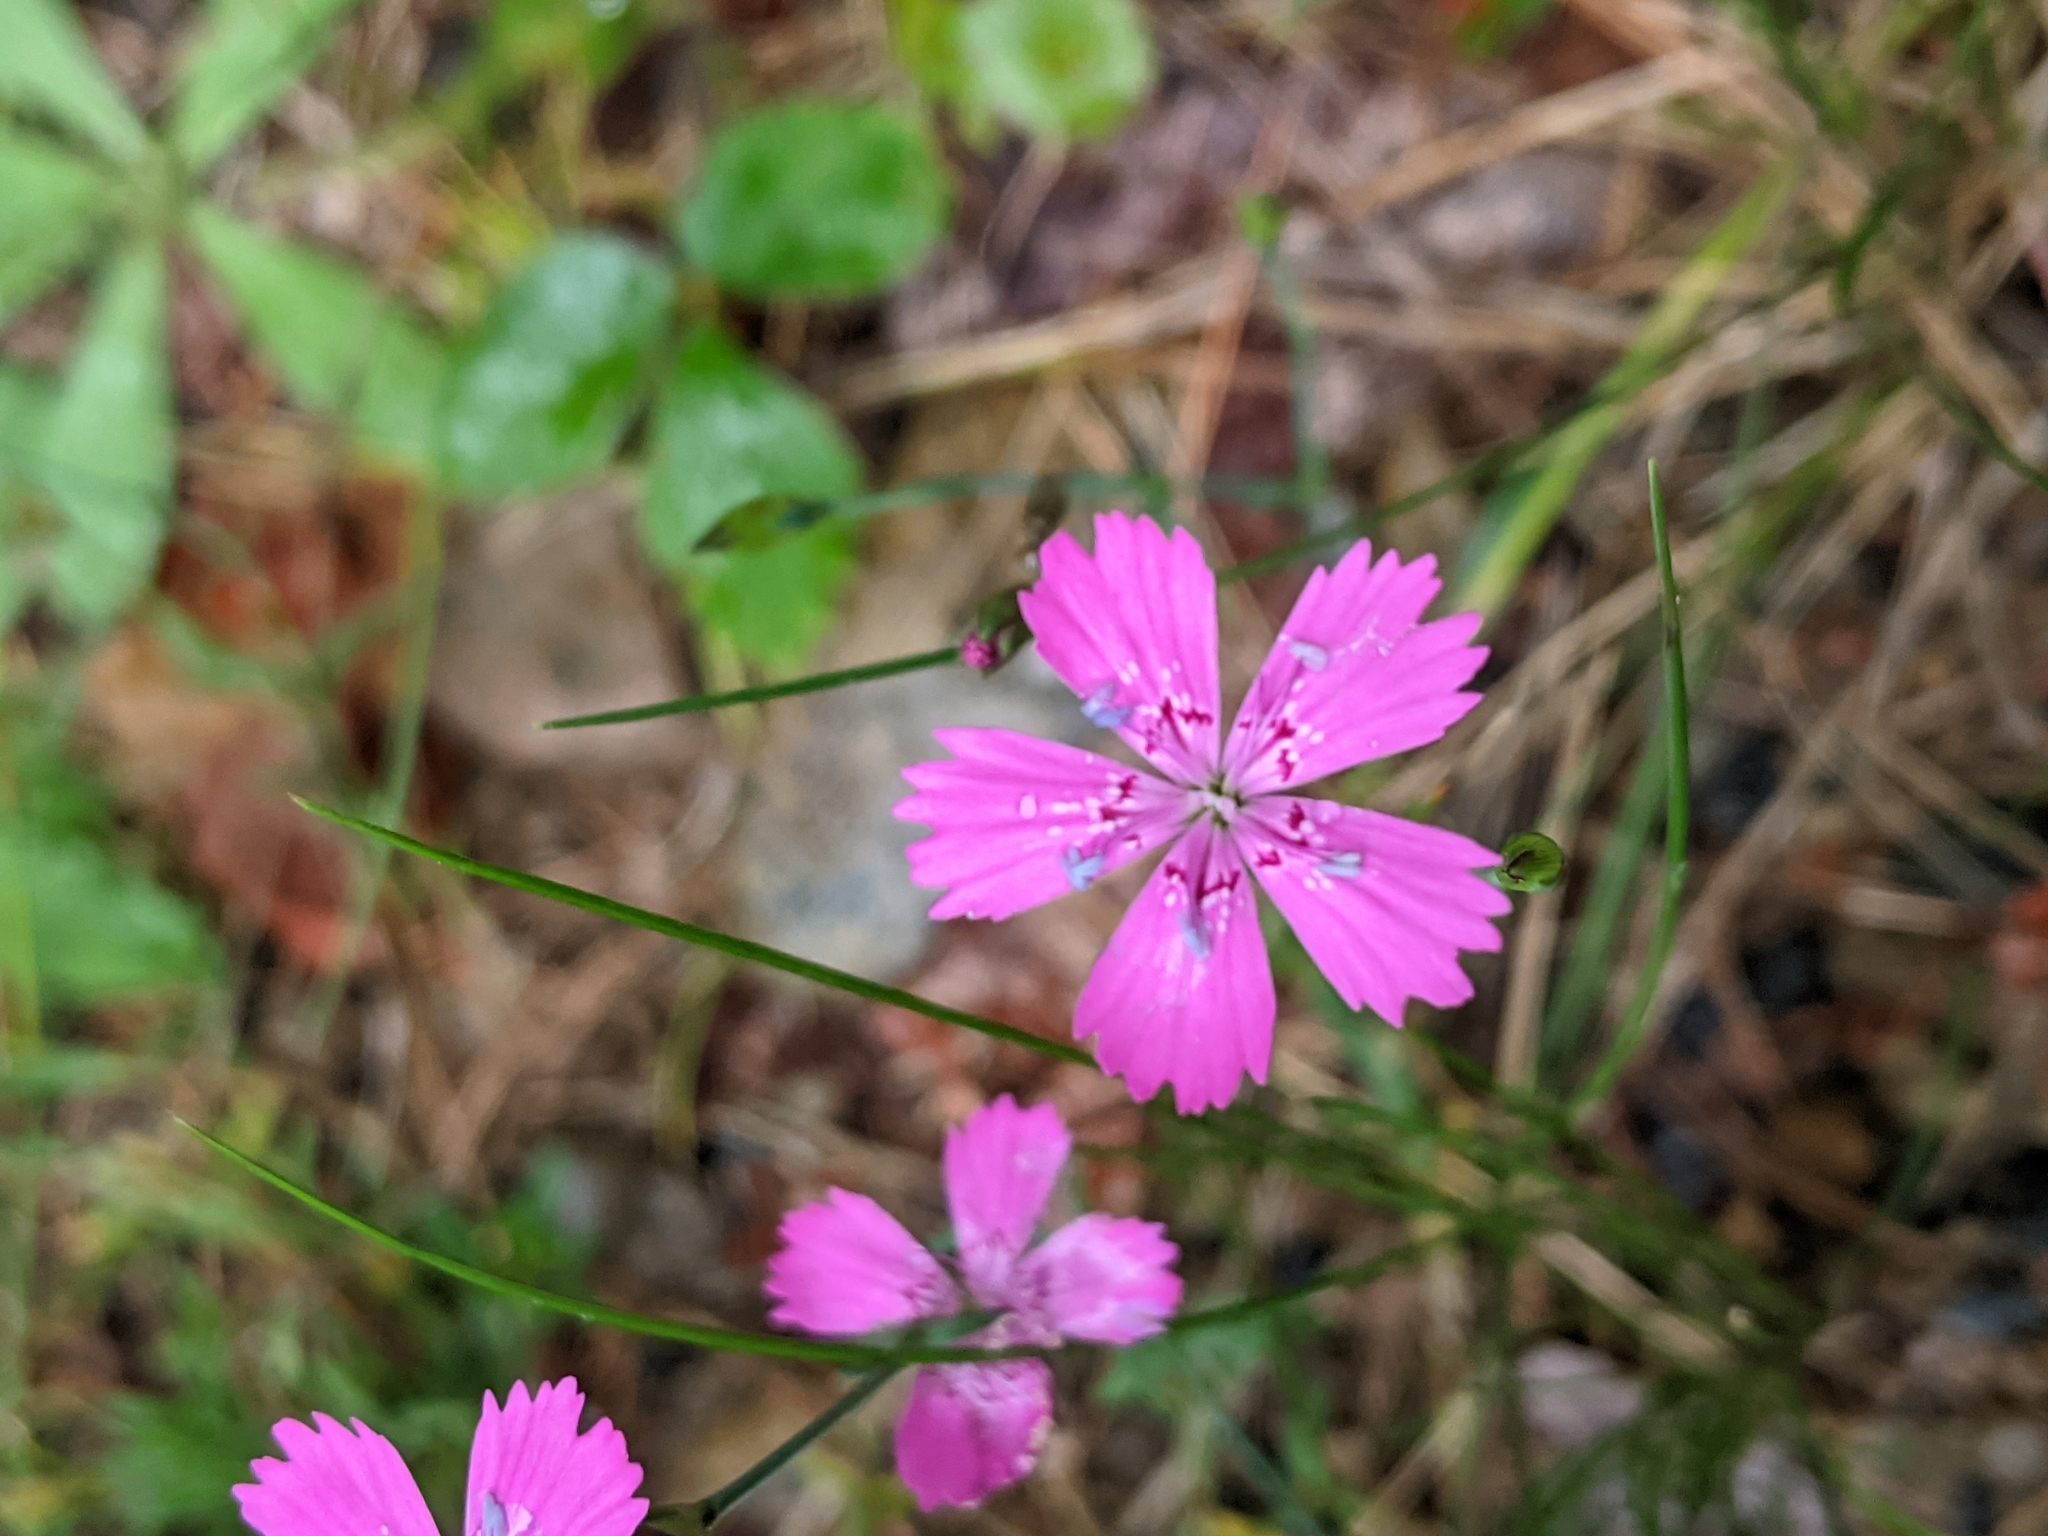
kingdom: Plantae
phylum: Tracheophyta
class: Magnoliopsida
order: Caryophyllales
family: Caryophyllaceae
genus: Dianthus
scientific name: Dianthus deltoides
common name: Maiden pink
